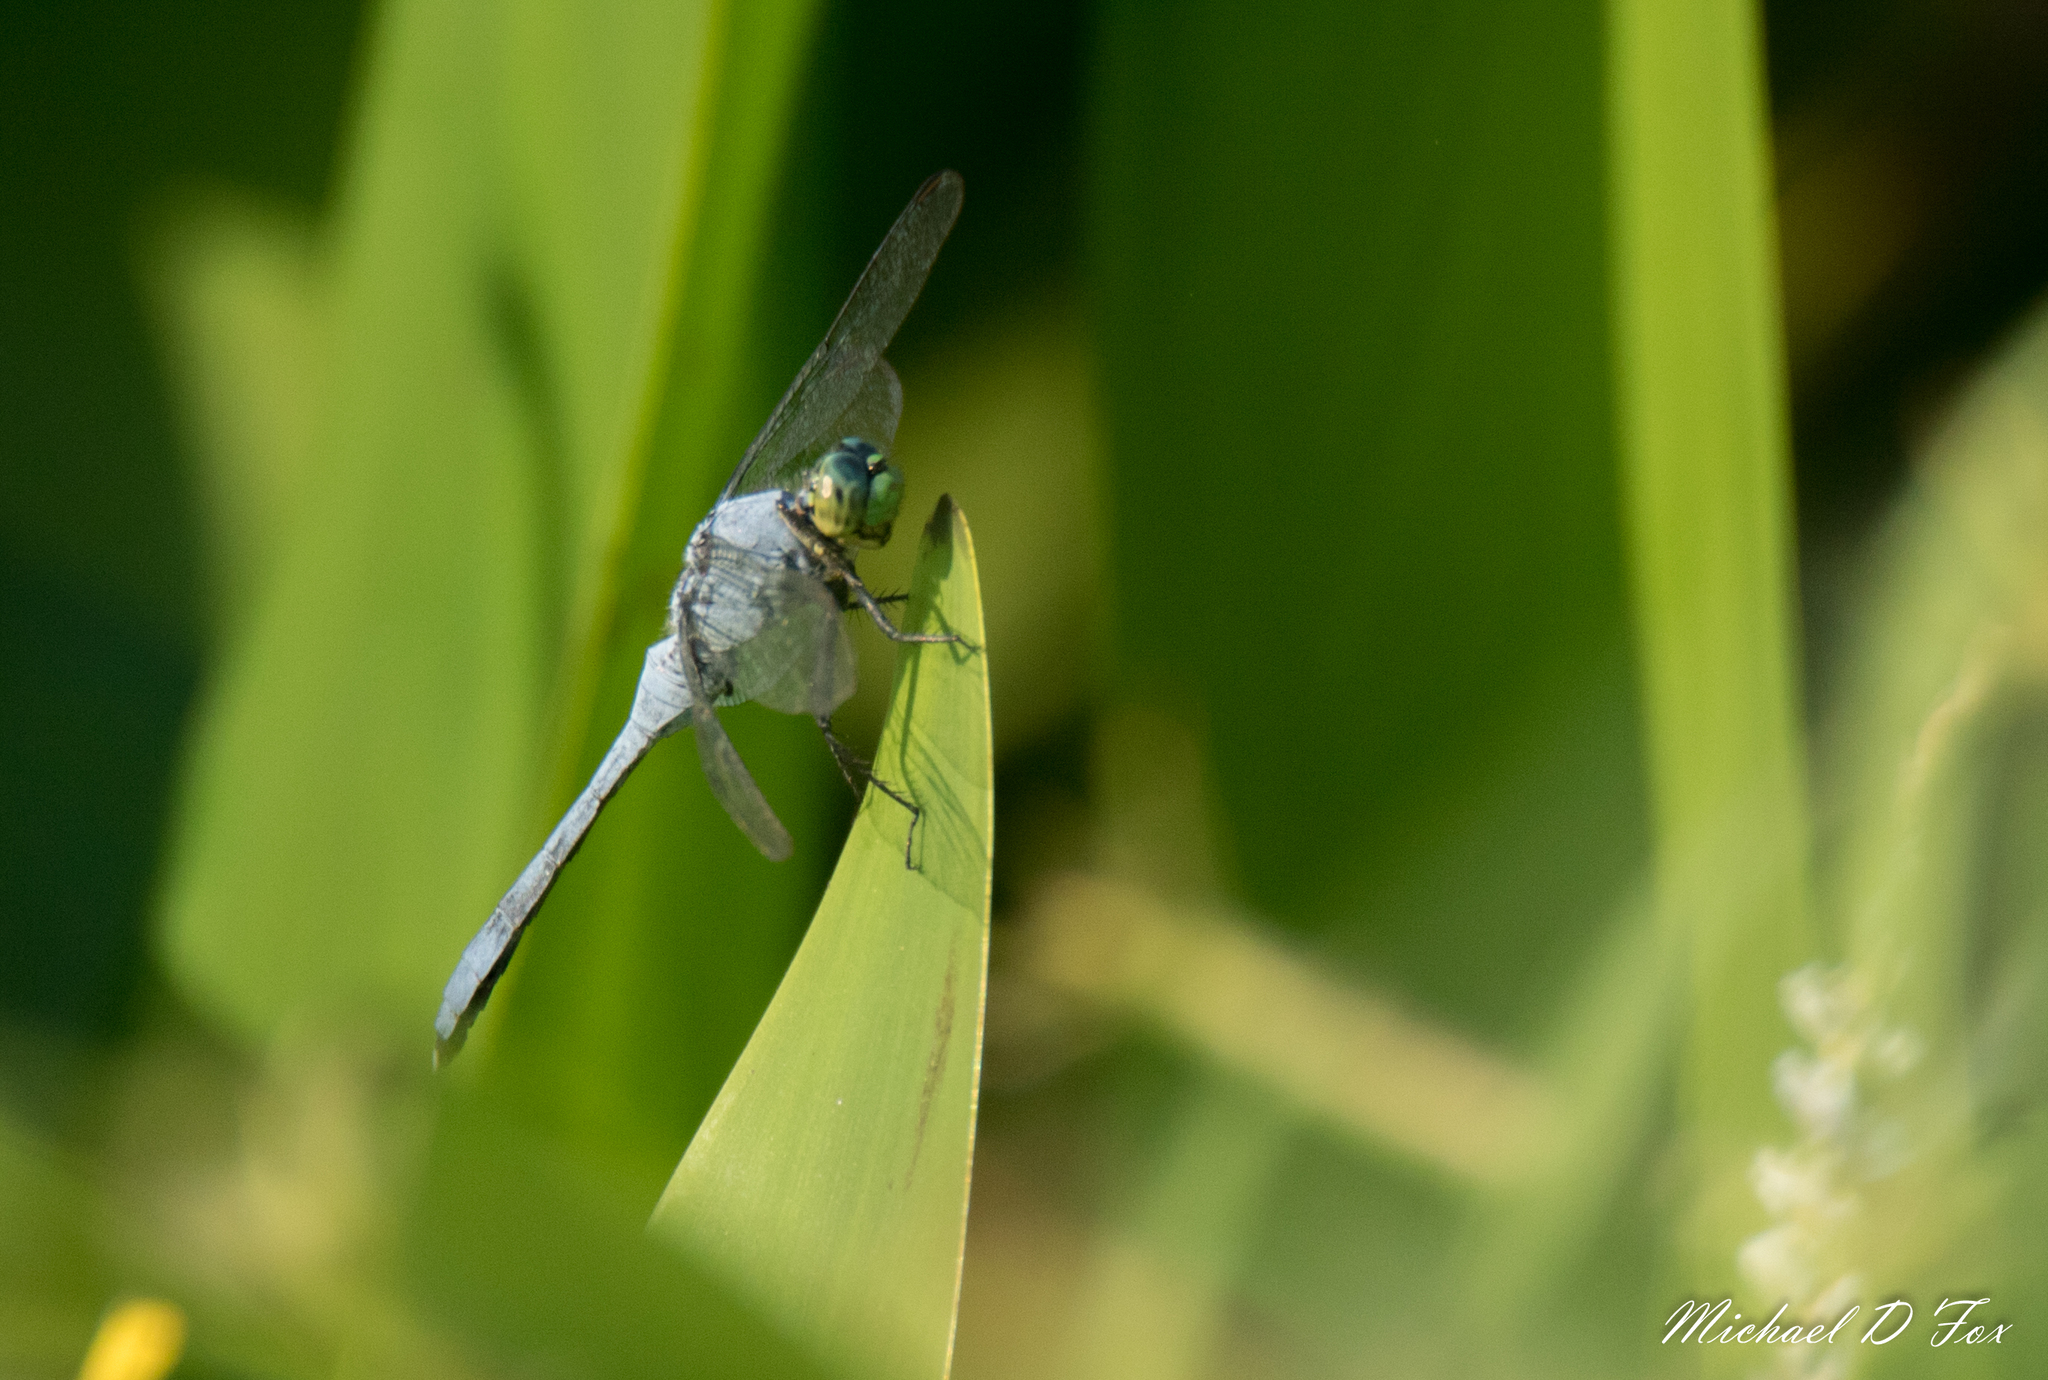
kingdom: Animalia
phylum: Arthropoda
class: Insecta
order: Odonata
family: Libellulidae
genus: Erythemis
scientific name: Erythemis simplicicollis
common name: Eastern pondhawk
